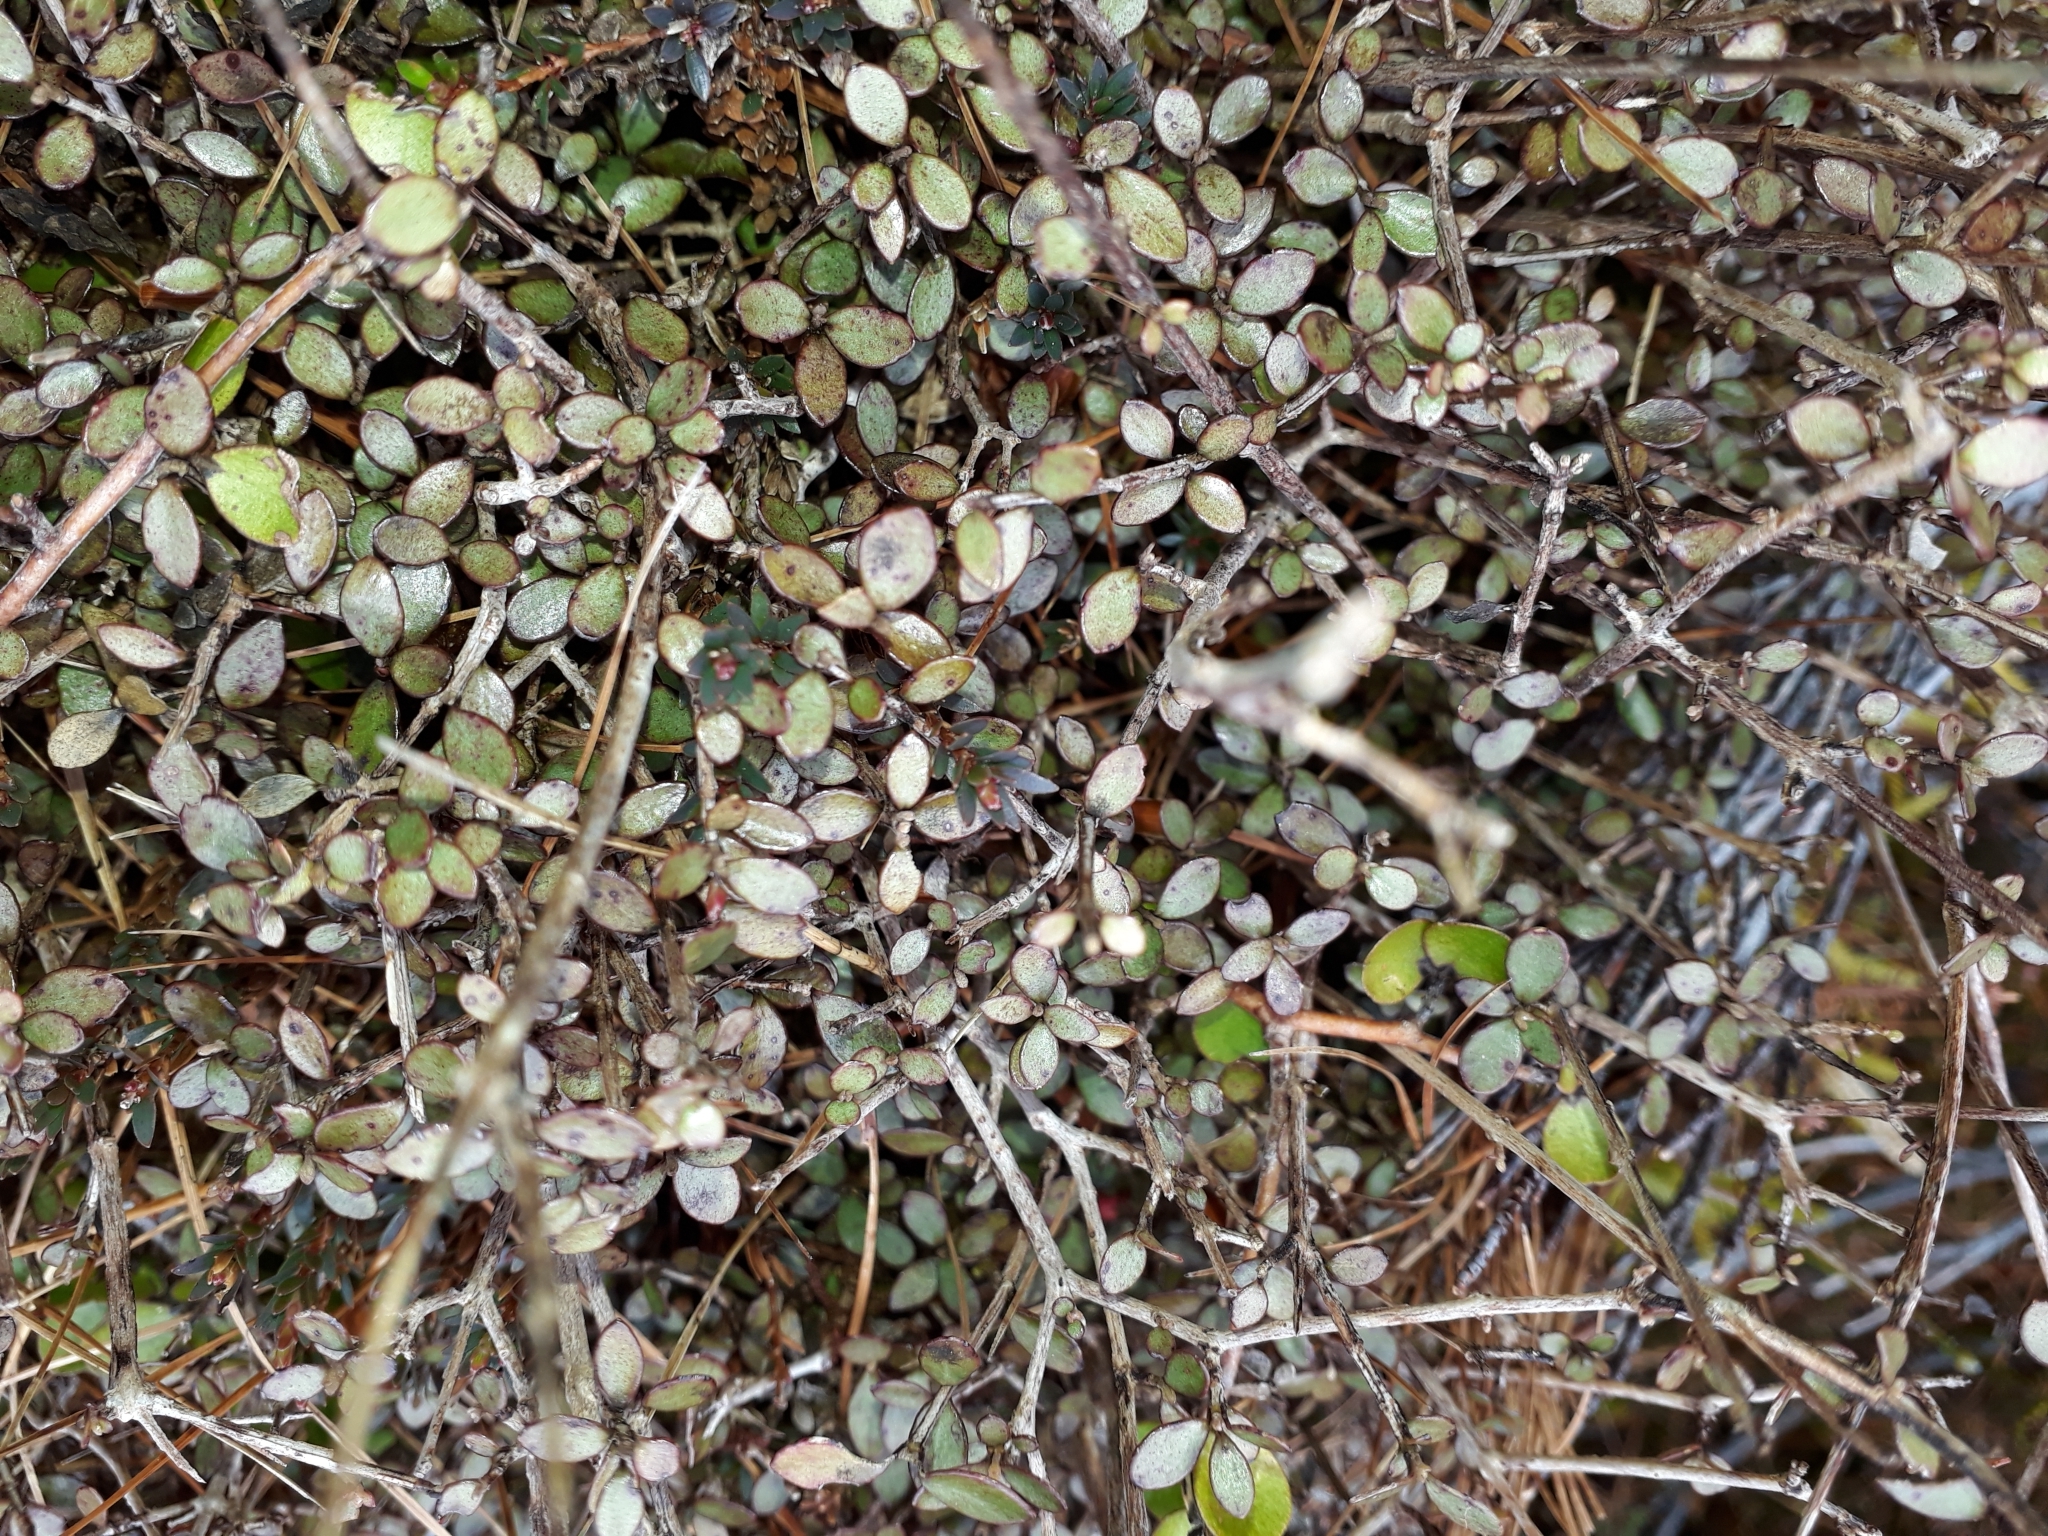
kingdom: Plantae
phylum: Tracheophyta
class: Magnoliopsida
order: Myrtales
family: Myrtaceae
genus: Neomyrtus
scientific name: Neomyrtus pedunculata
